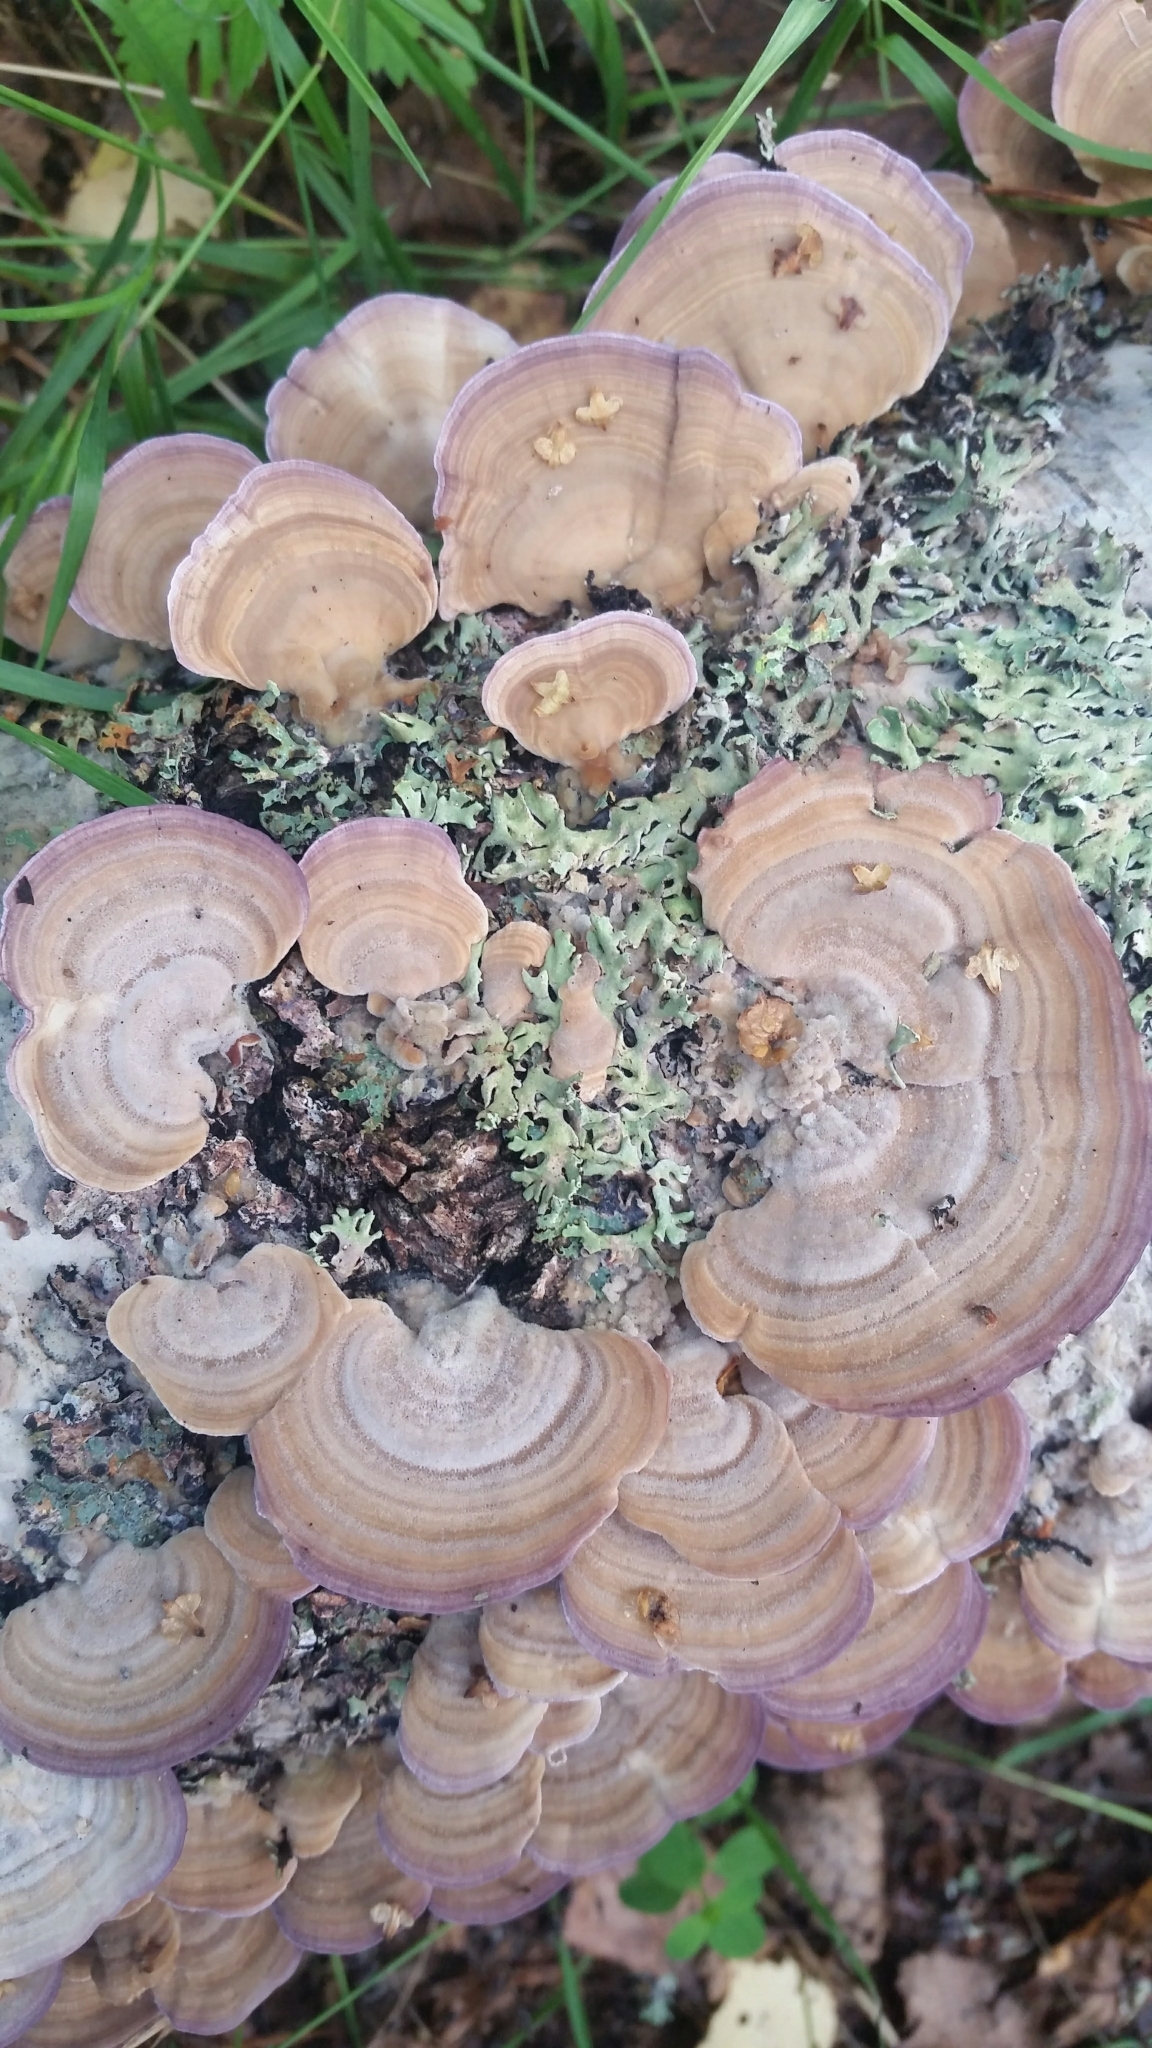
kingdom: Fungi
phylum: Basidiomycota
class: Agaricomycetes
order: Hymenochaetales
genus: Trichaptum
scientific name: Trichaptum biforme
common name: Violet-toothed polypore
